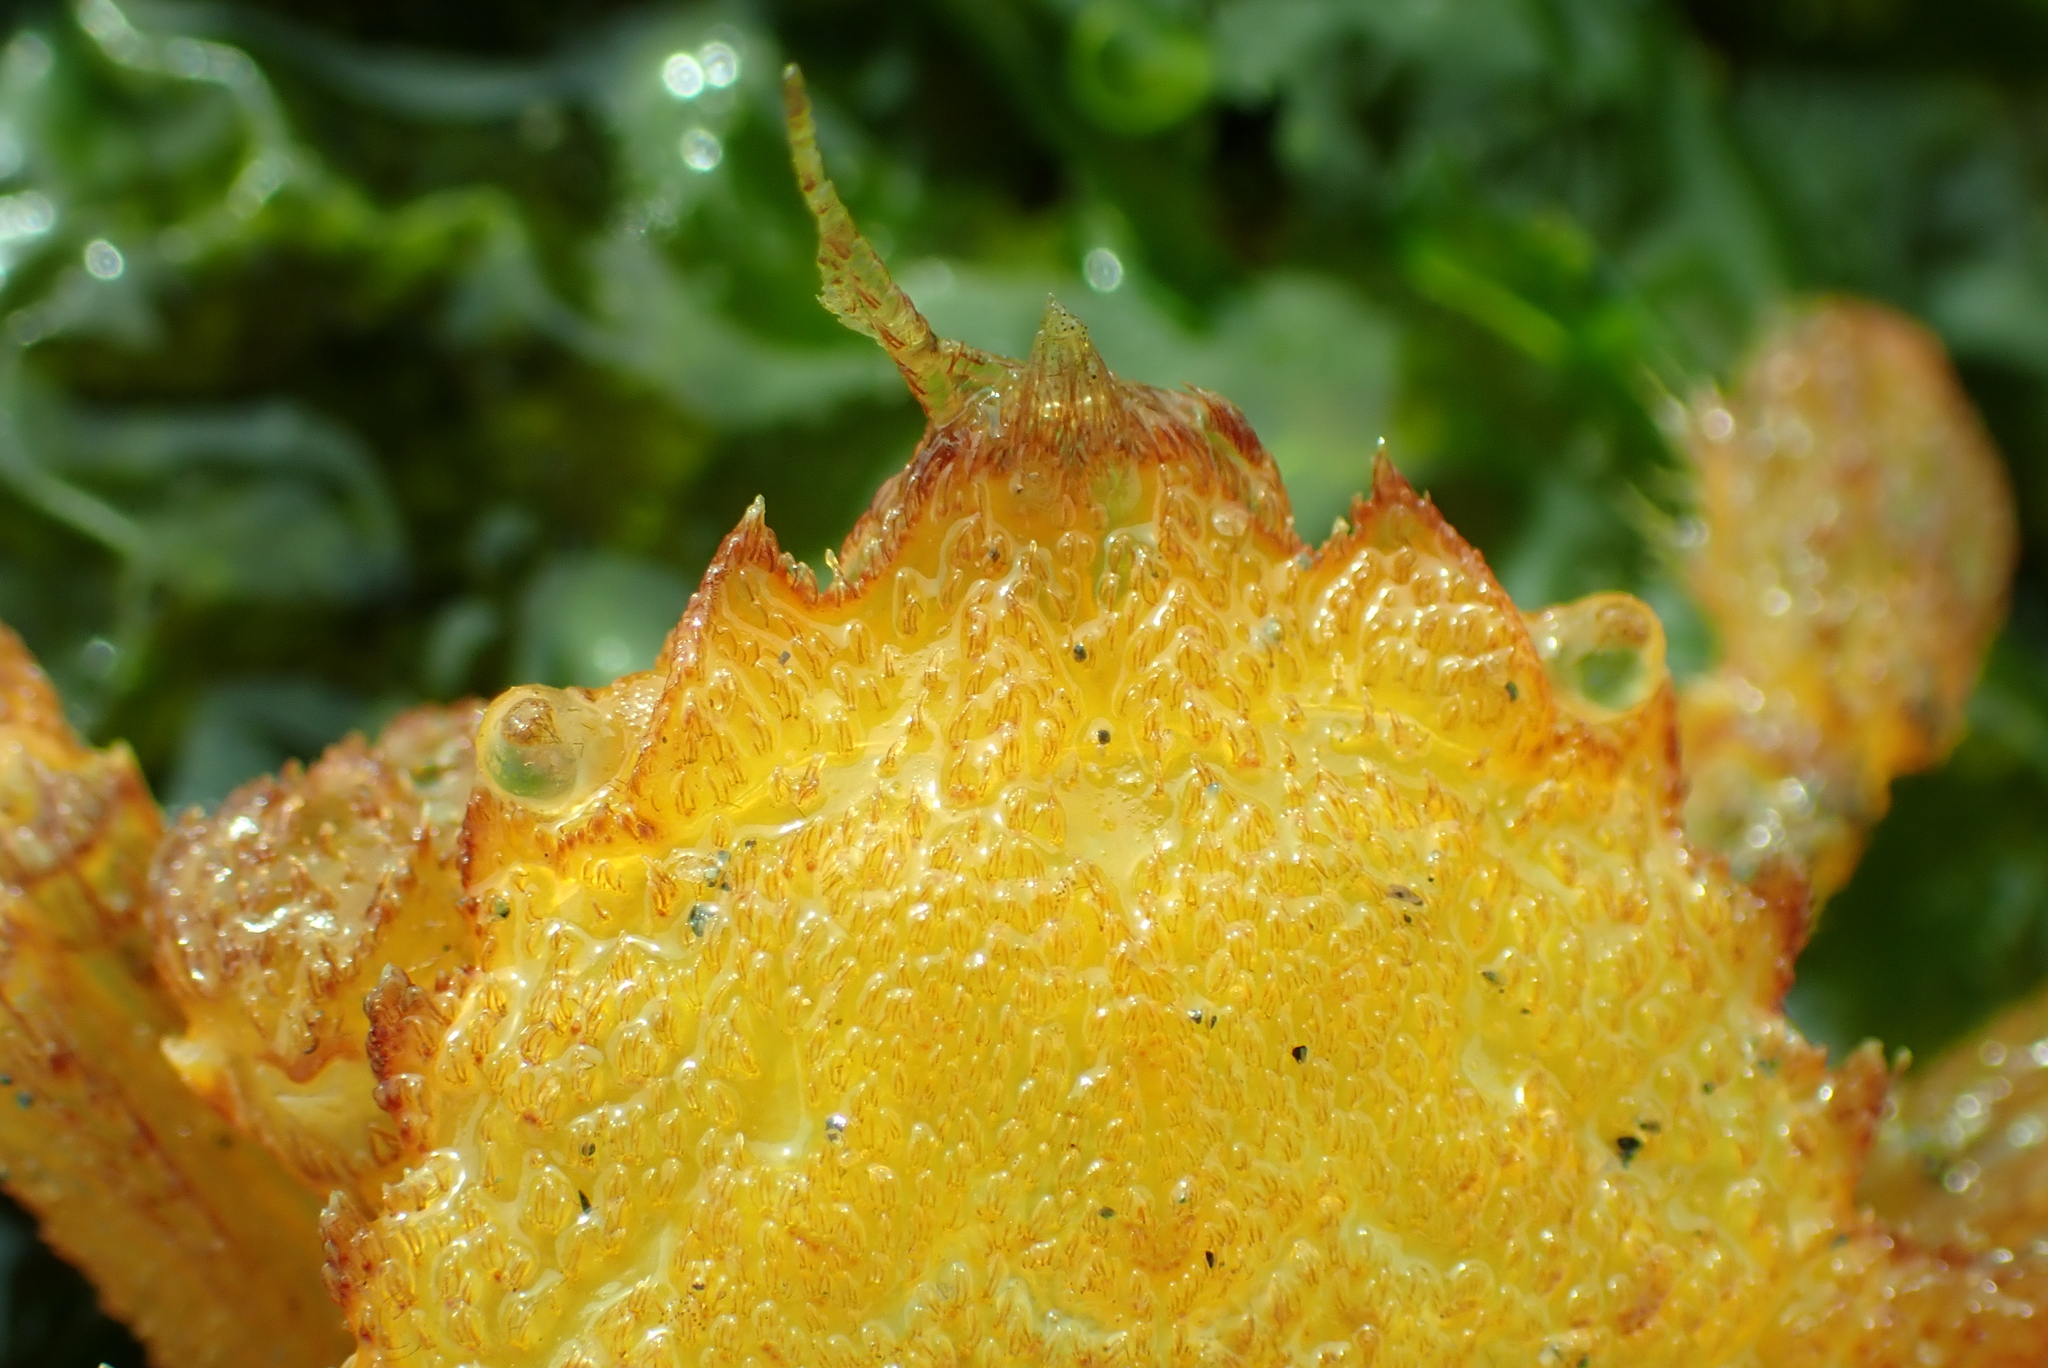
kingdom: Animalia
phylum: Arthropoda
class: Malacostraca
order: Decapoda
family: Cheiragonidae
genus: Telmessus
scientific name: Telmessus cheiragonus
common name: Helmet crab
